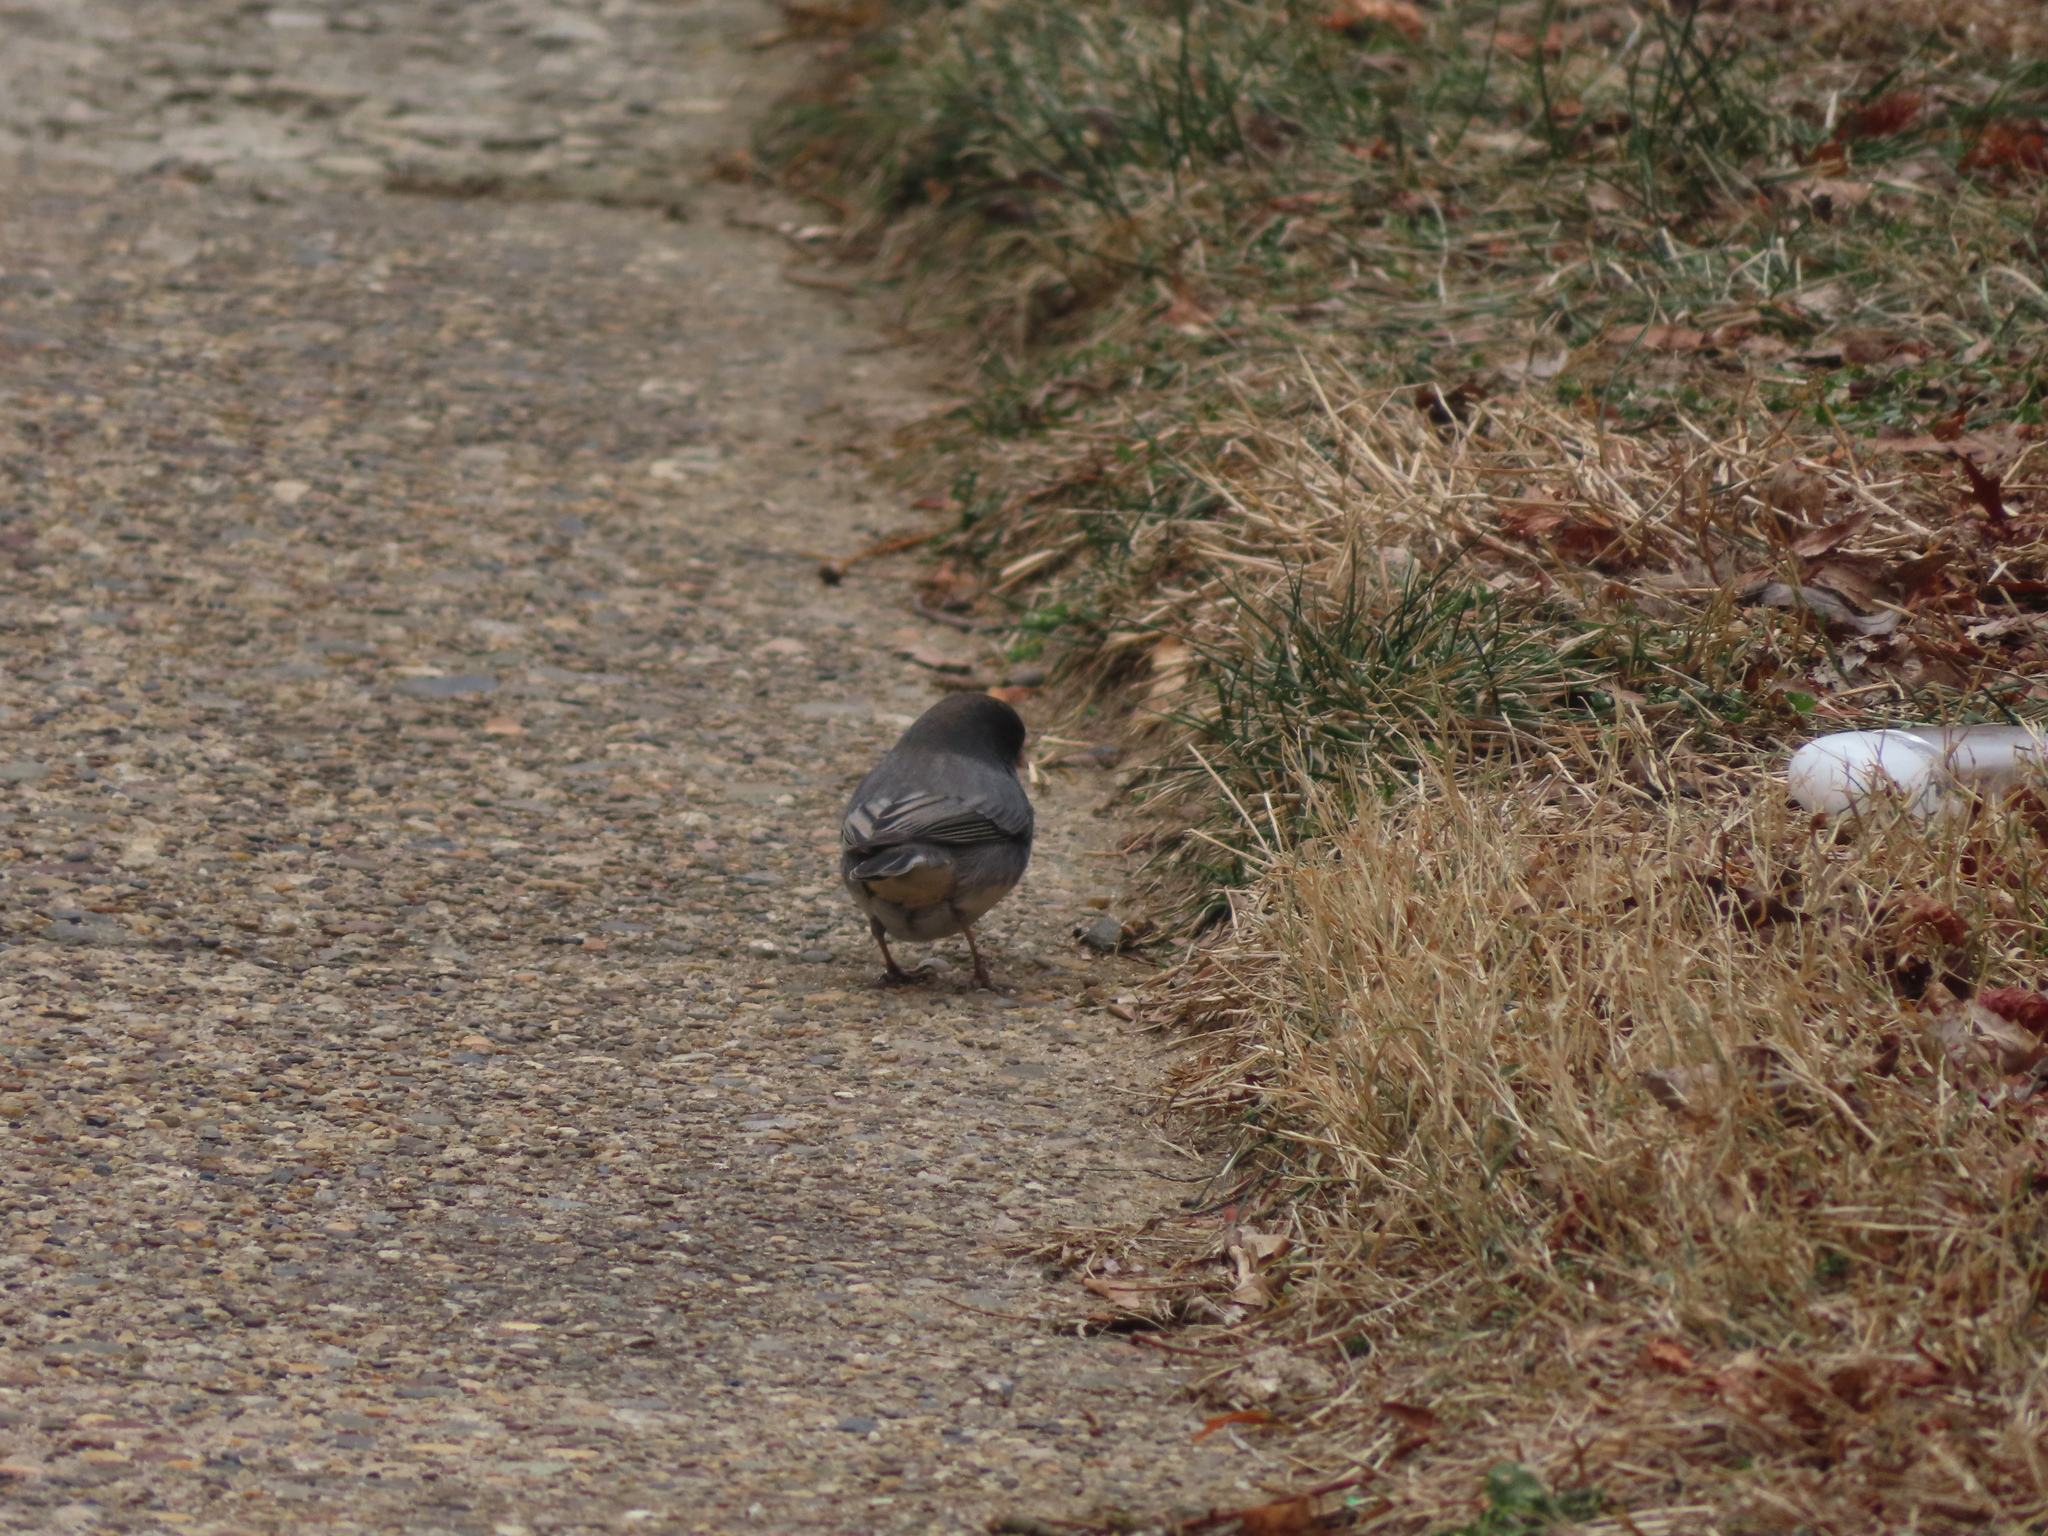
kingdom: Animalia
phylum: Chordata
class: Aves
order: Passeriformes
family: Passerellidae
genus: Junco
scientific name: Junco hyemalis
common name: Dark-eyed junco
